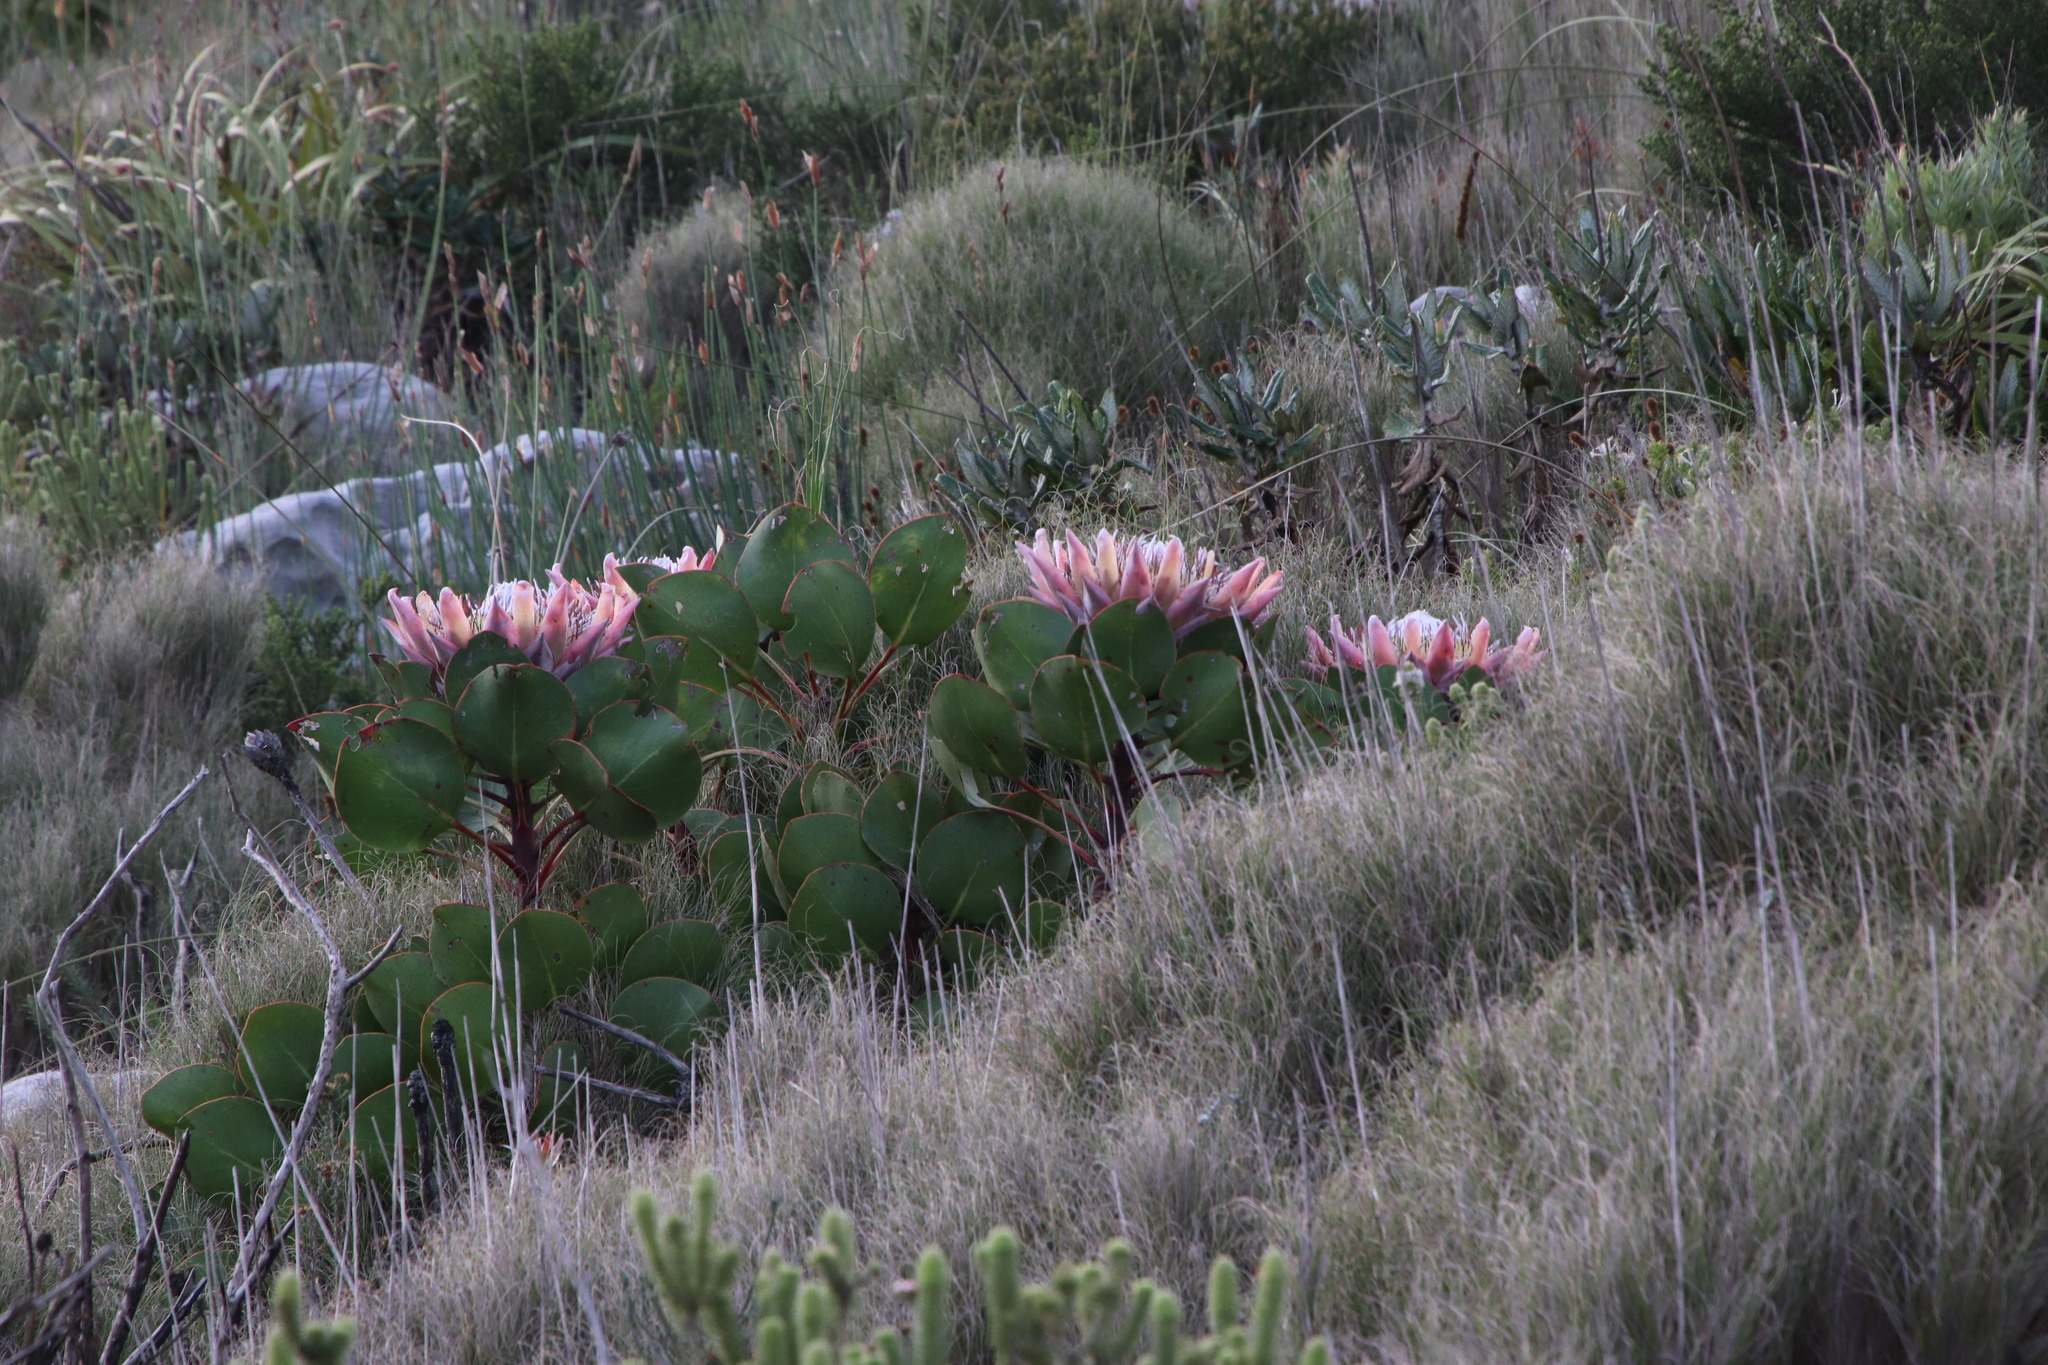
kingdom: Plantae
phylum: Tracheophyta
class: Magnoliopsida
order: Proteales
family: Proteaceae
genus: Protea
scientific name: Protea cynaroides
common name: King protea
